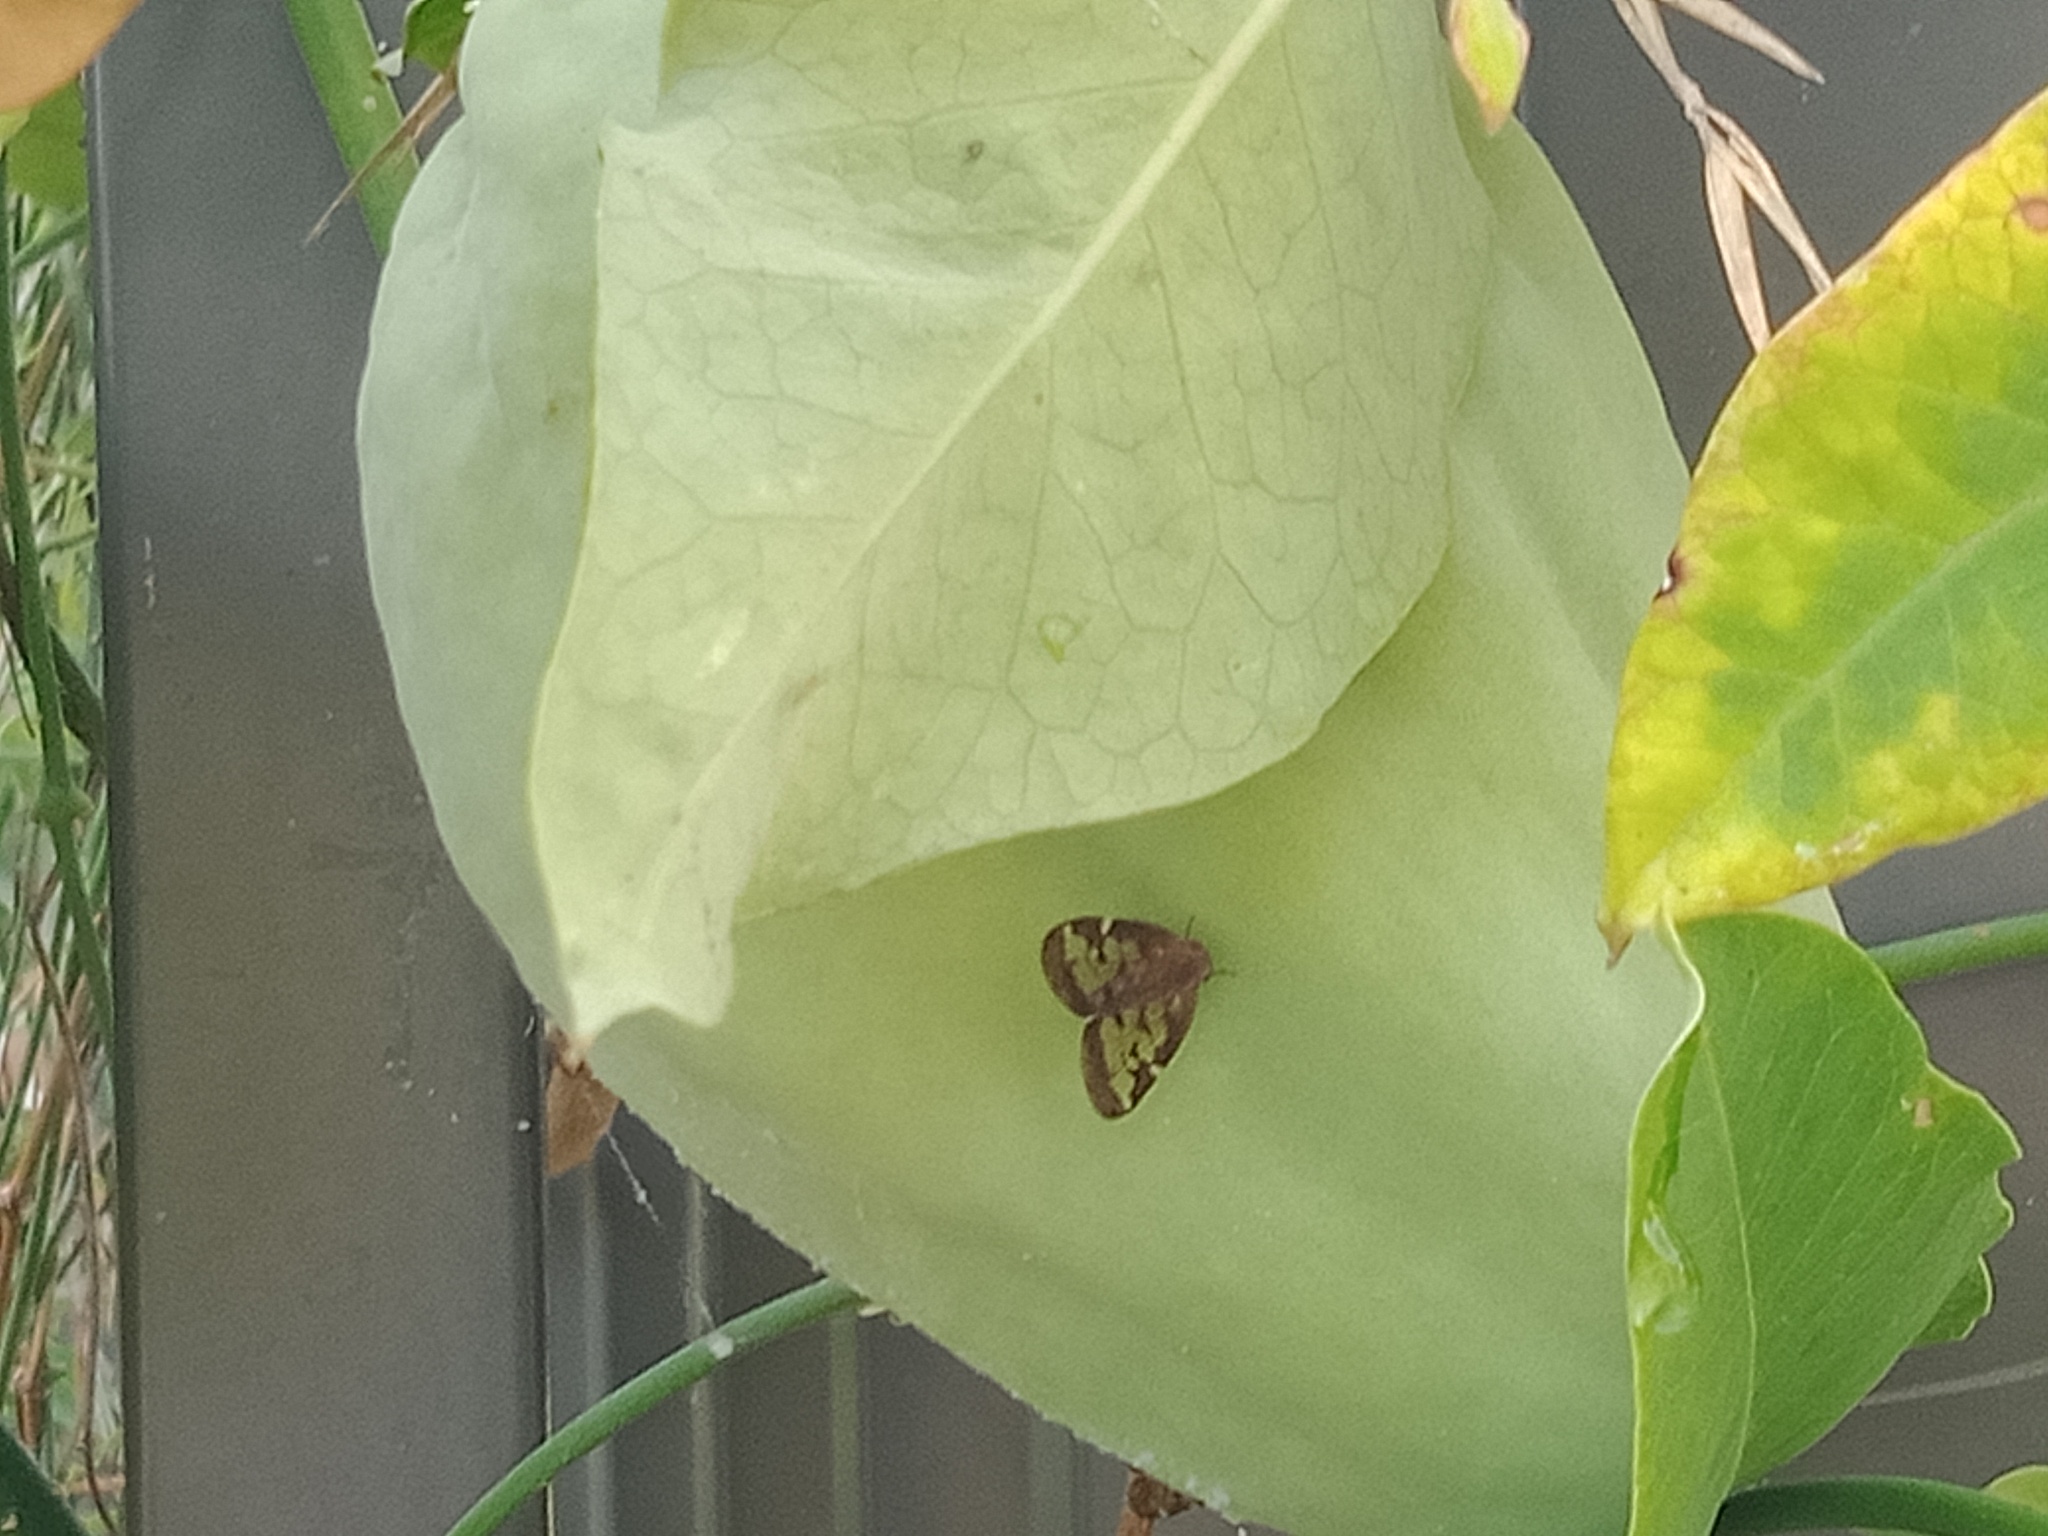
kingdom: Plantae
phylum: Tracheophyta
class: Magnoliopsida
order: Gentianales
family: Apocynaceae
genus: Araujia
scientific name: Araujia sericifera
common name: White bladderflower
